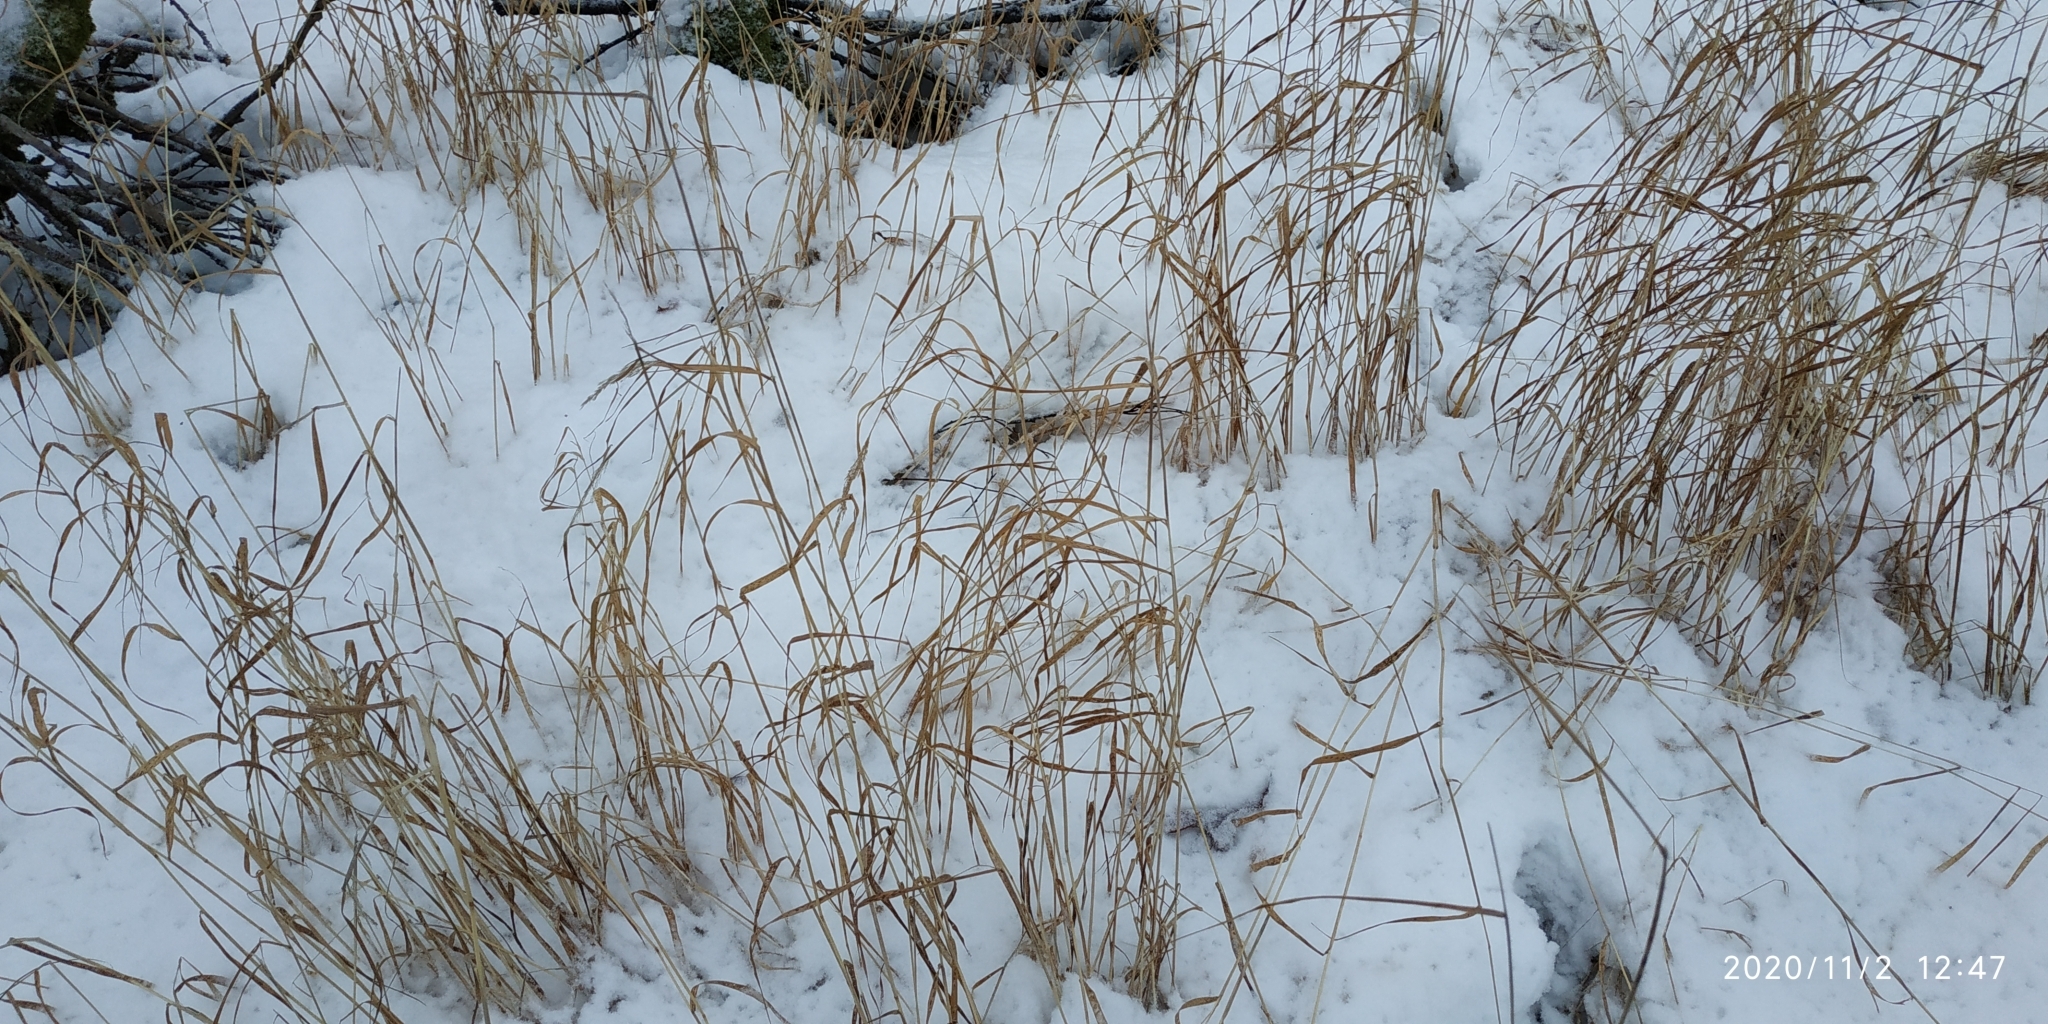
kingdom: Plantae
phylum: Tracheophyta
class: Liliopsida
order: Poales
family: Poaceae
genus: Calamagrostis
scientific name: Calamagrostis purpurea
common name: Scandinavian small-reed
